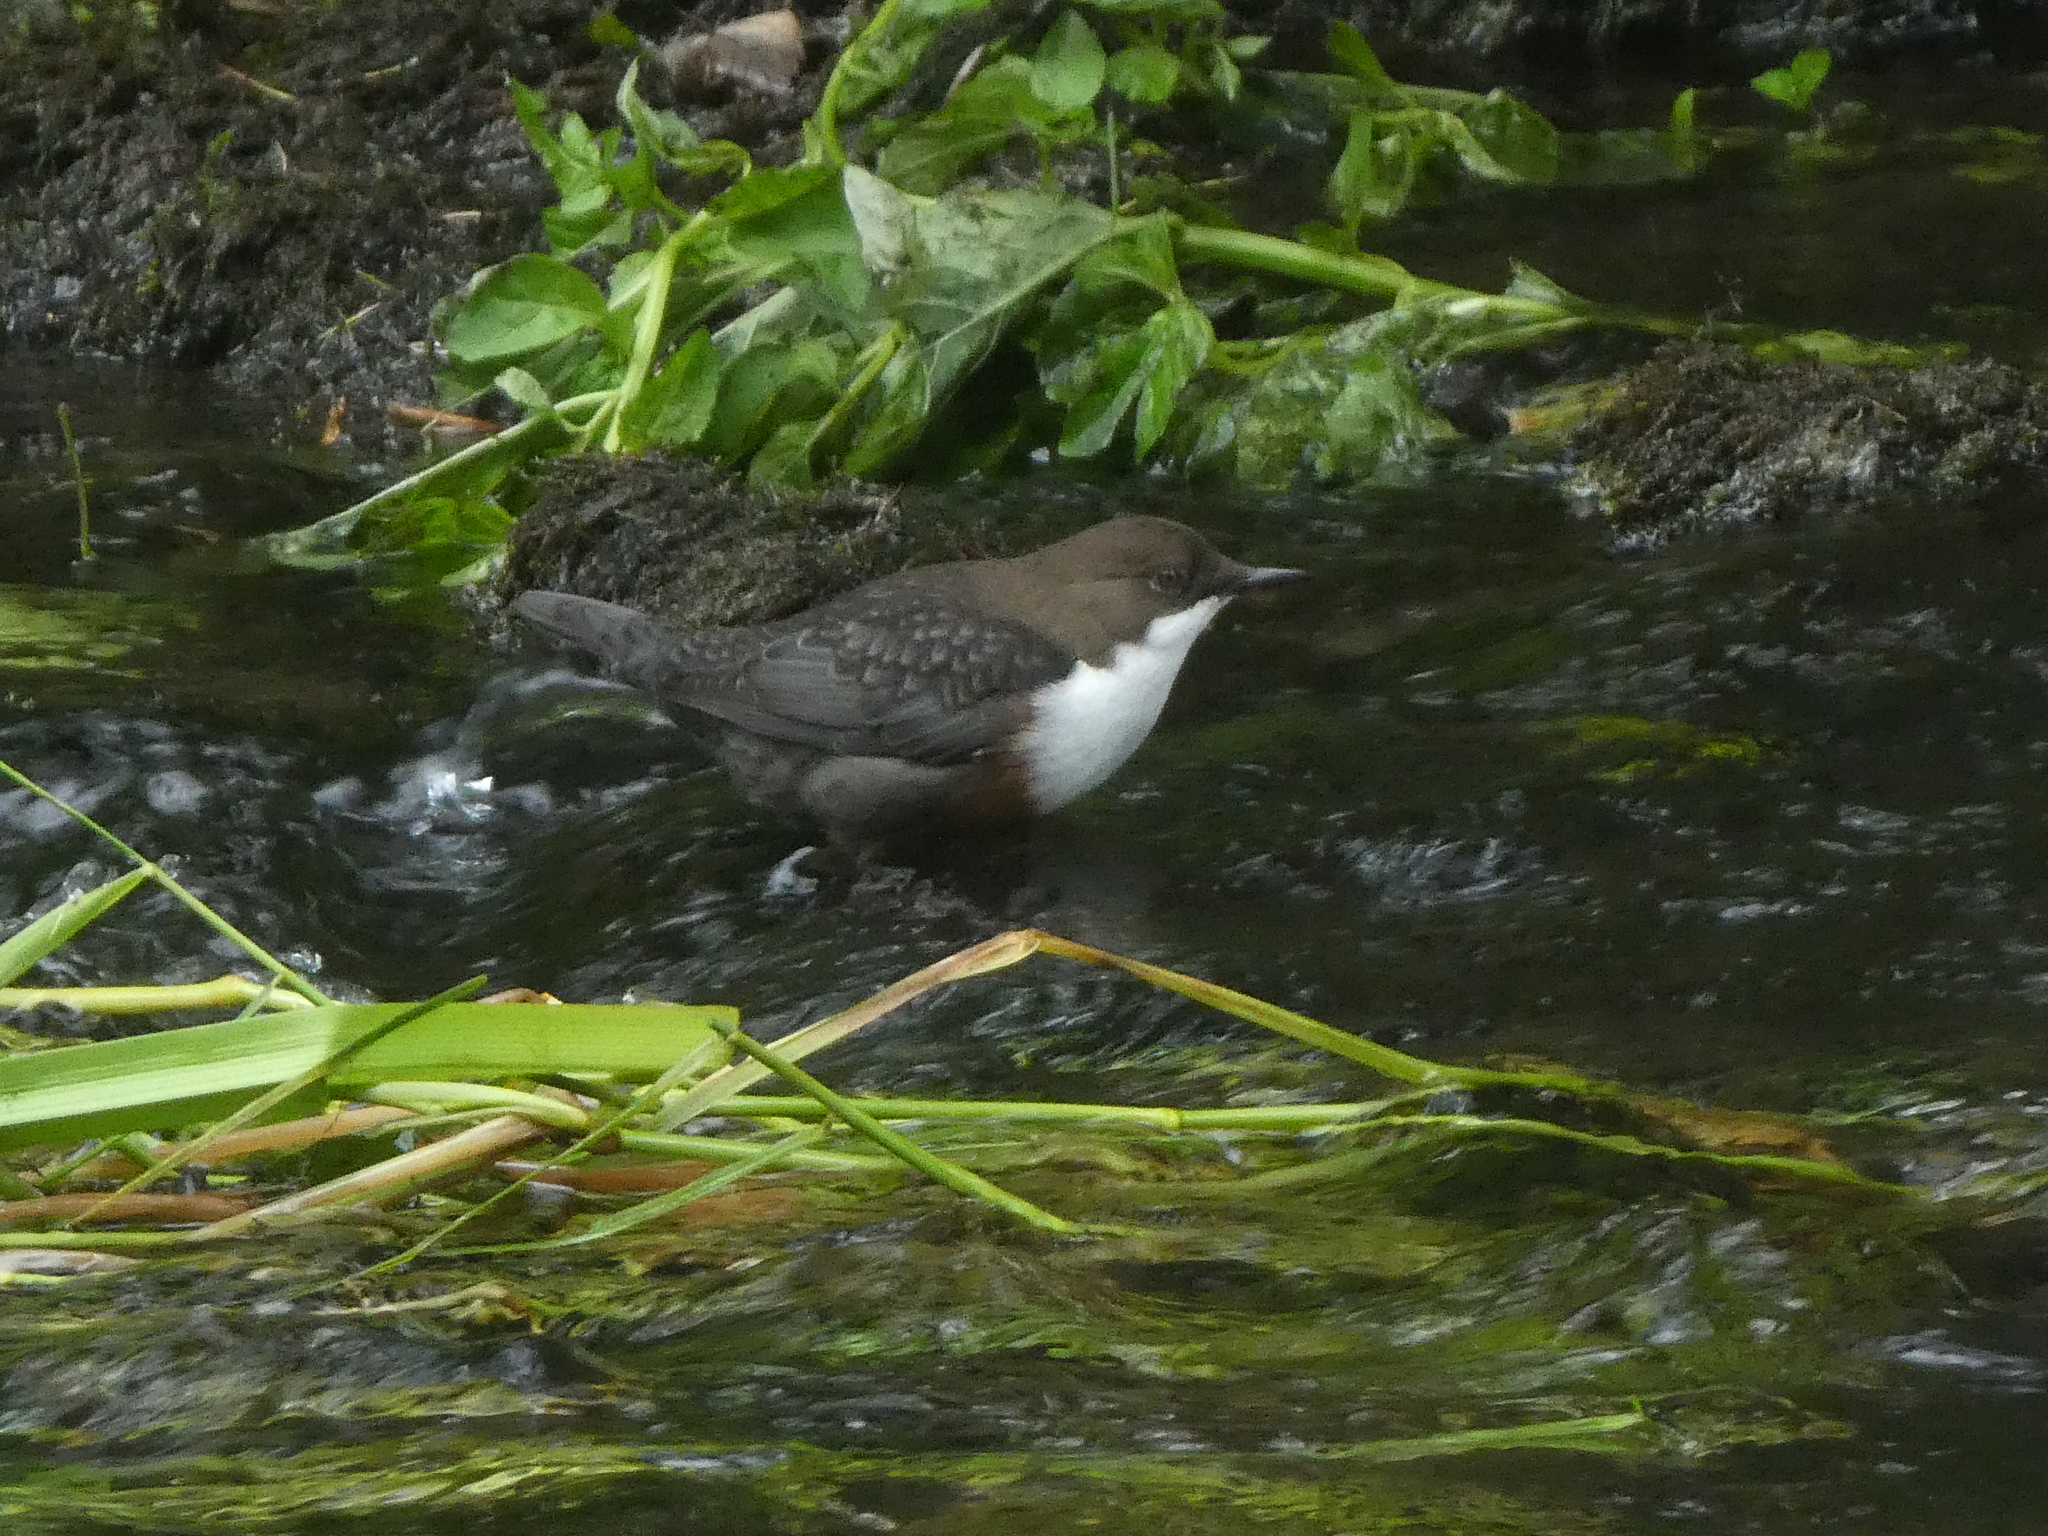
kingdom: Animalia
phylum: Chordata
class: Aves
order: Passeriformes
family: Cinclidae
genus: Cinclus
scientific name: Cinclus cinclus
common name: White-throated dipper
